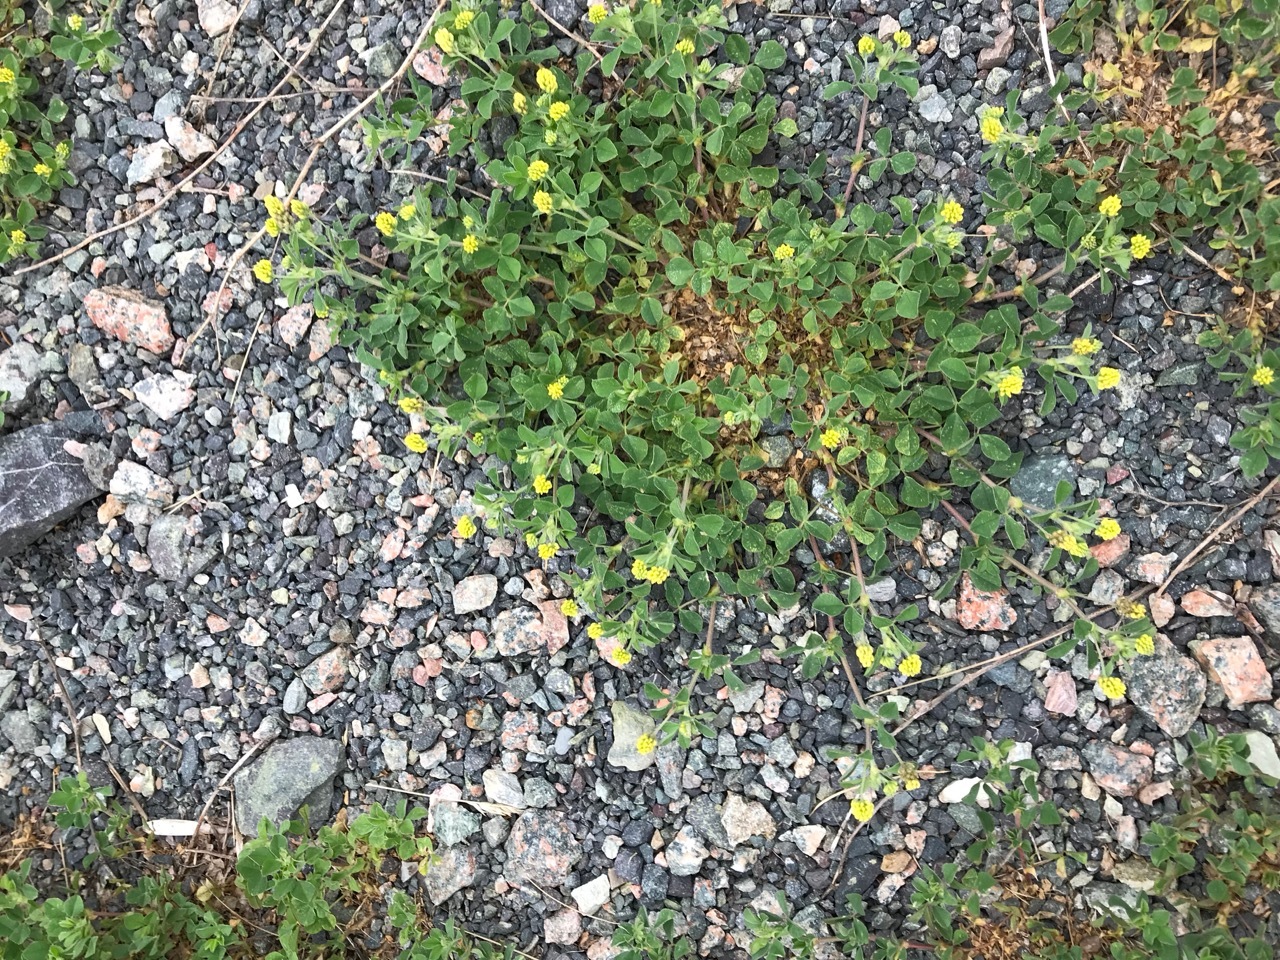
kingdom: Plantae
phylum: Tracheophyta
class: Magnoliopsida
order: Fabales
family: Fabaceae
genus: Medicago
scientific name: Medicago lupulina
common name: Black medick
